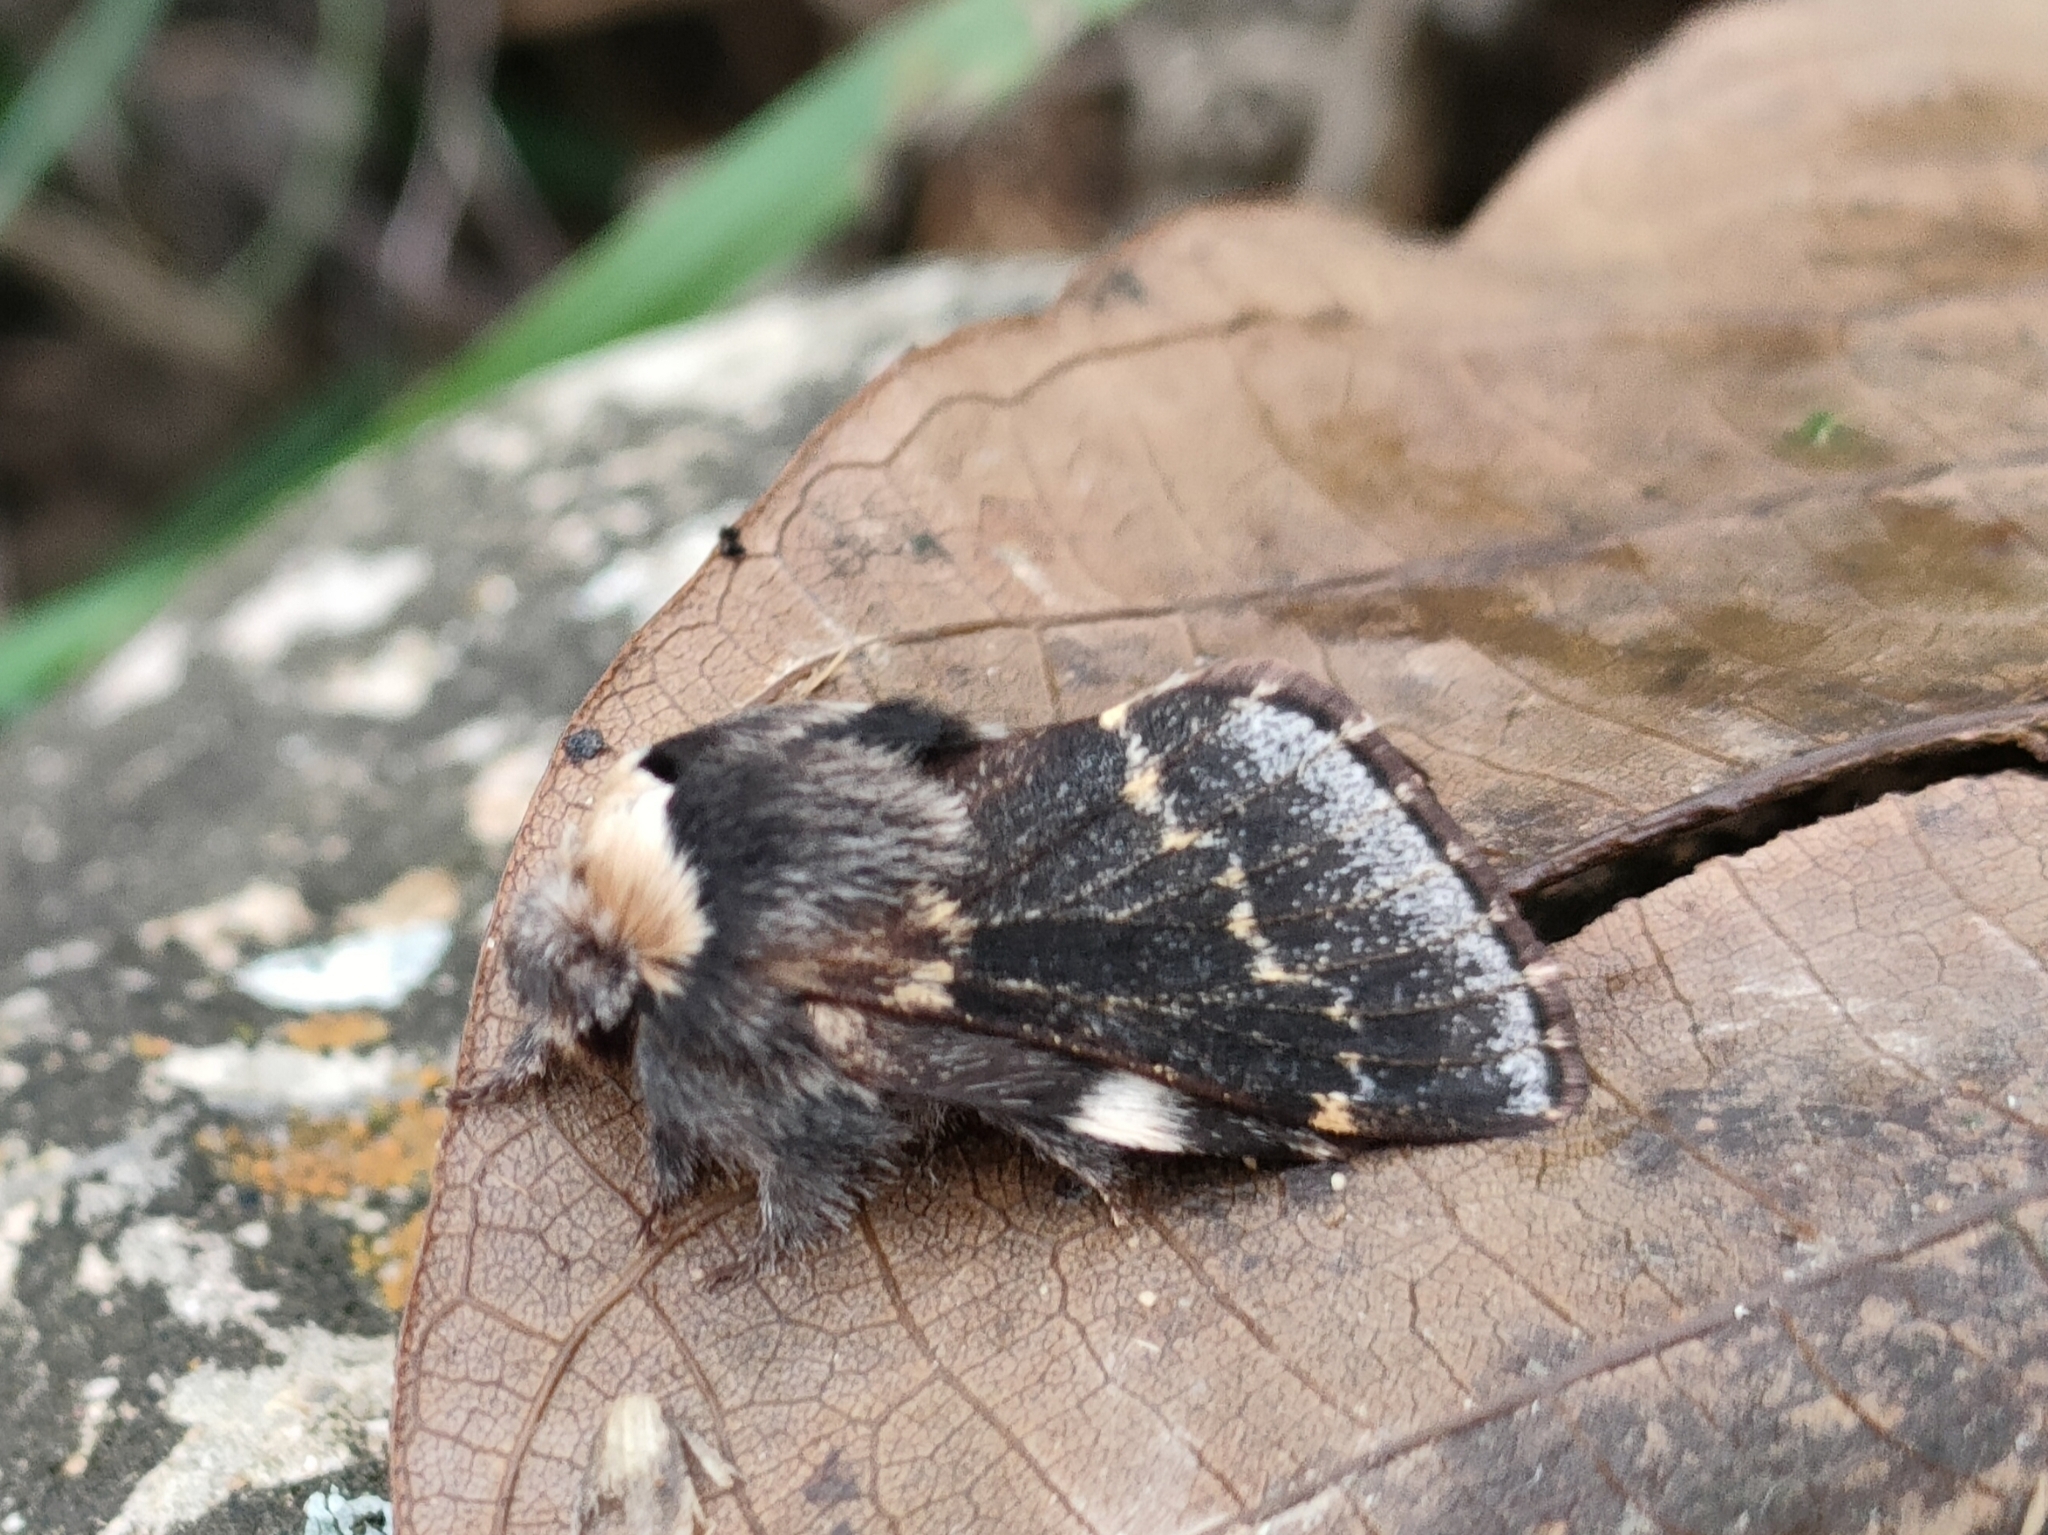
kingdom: Animalia
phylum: Arthropoda
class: Insecta
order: Lepidoptera
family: Lasiocampidae
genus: Poecilocampa
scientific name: Poecilocampa populi
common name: December moth
